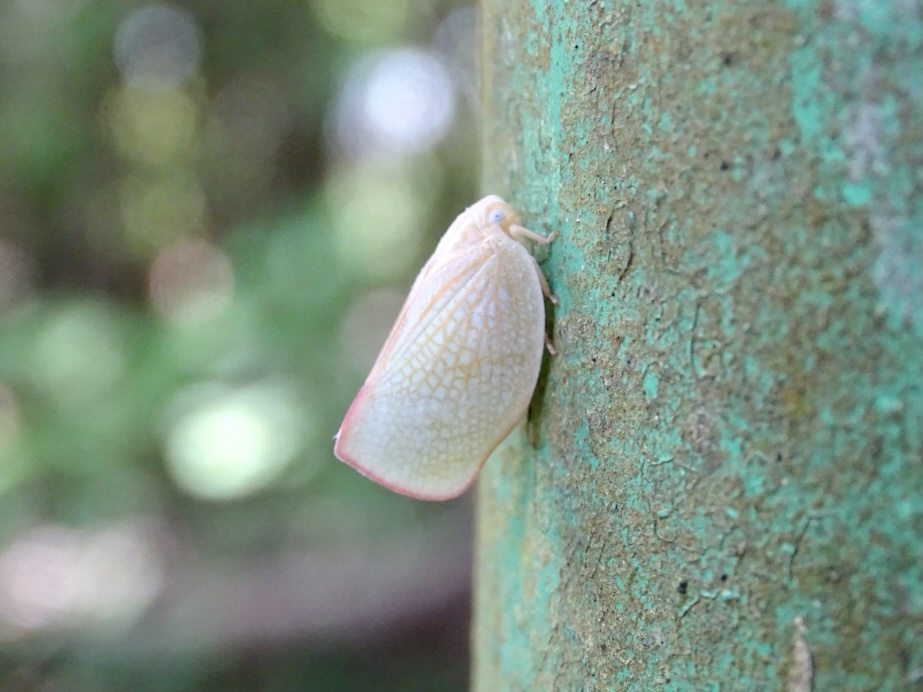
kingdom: Animalia
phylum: Arthropoda
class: Insecta
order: Hemiptera
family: Flatidae
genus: Geisha
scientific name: Geisha distinctissima
